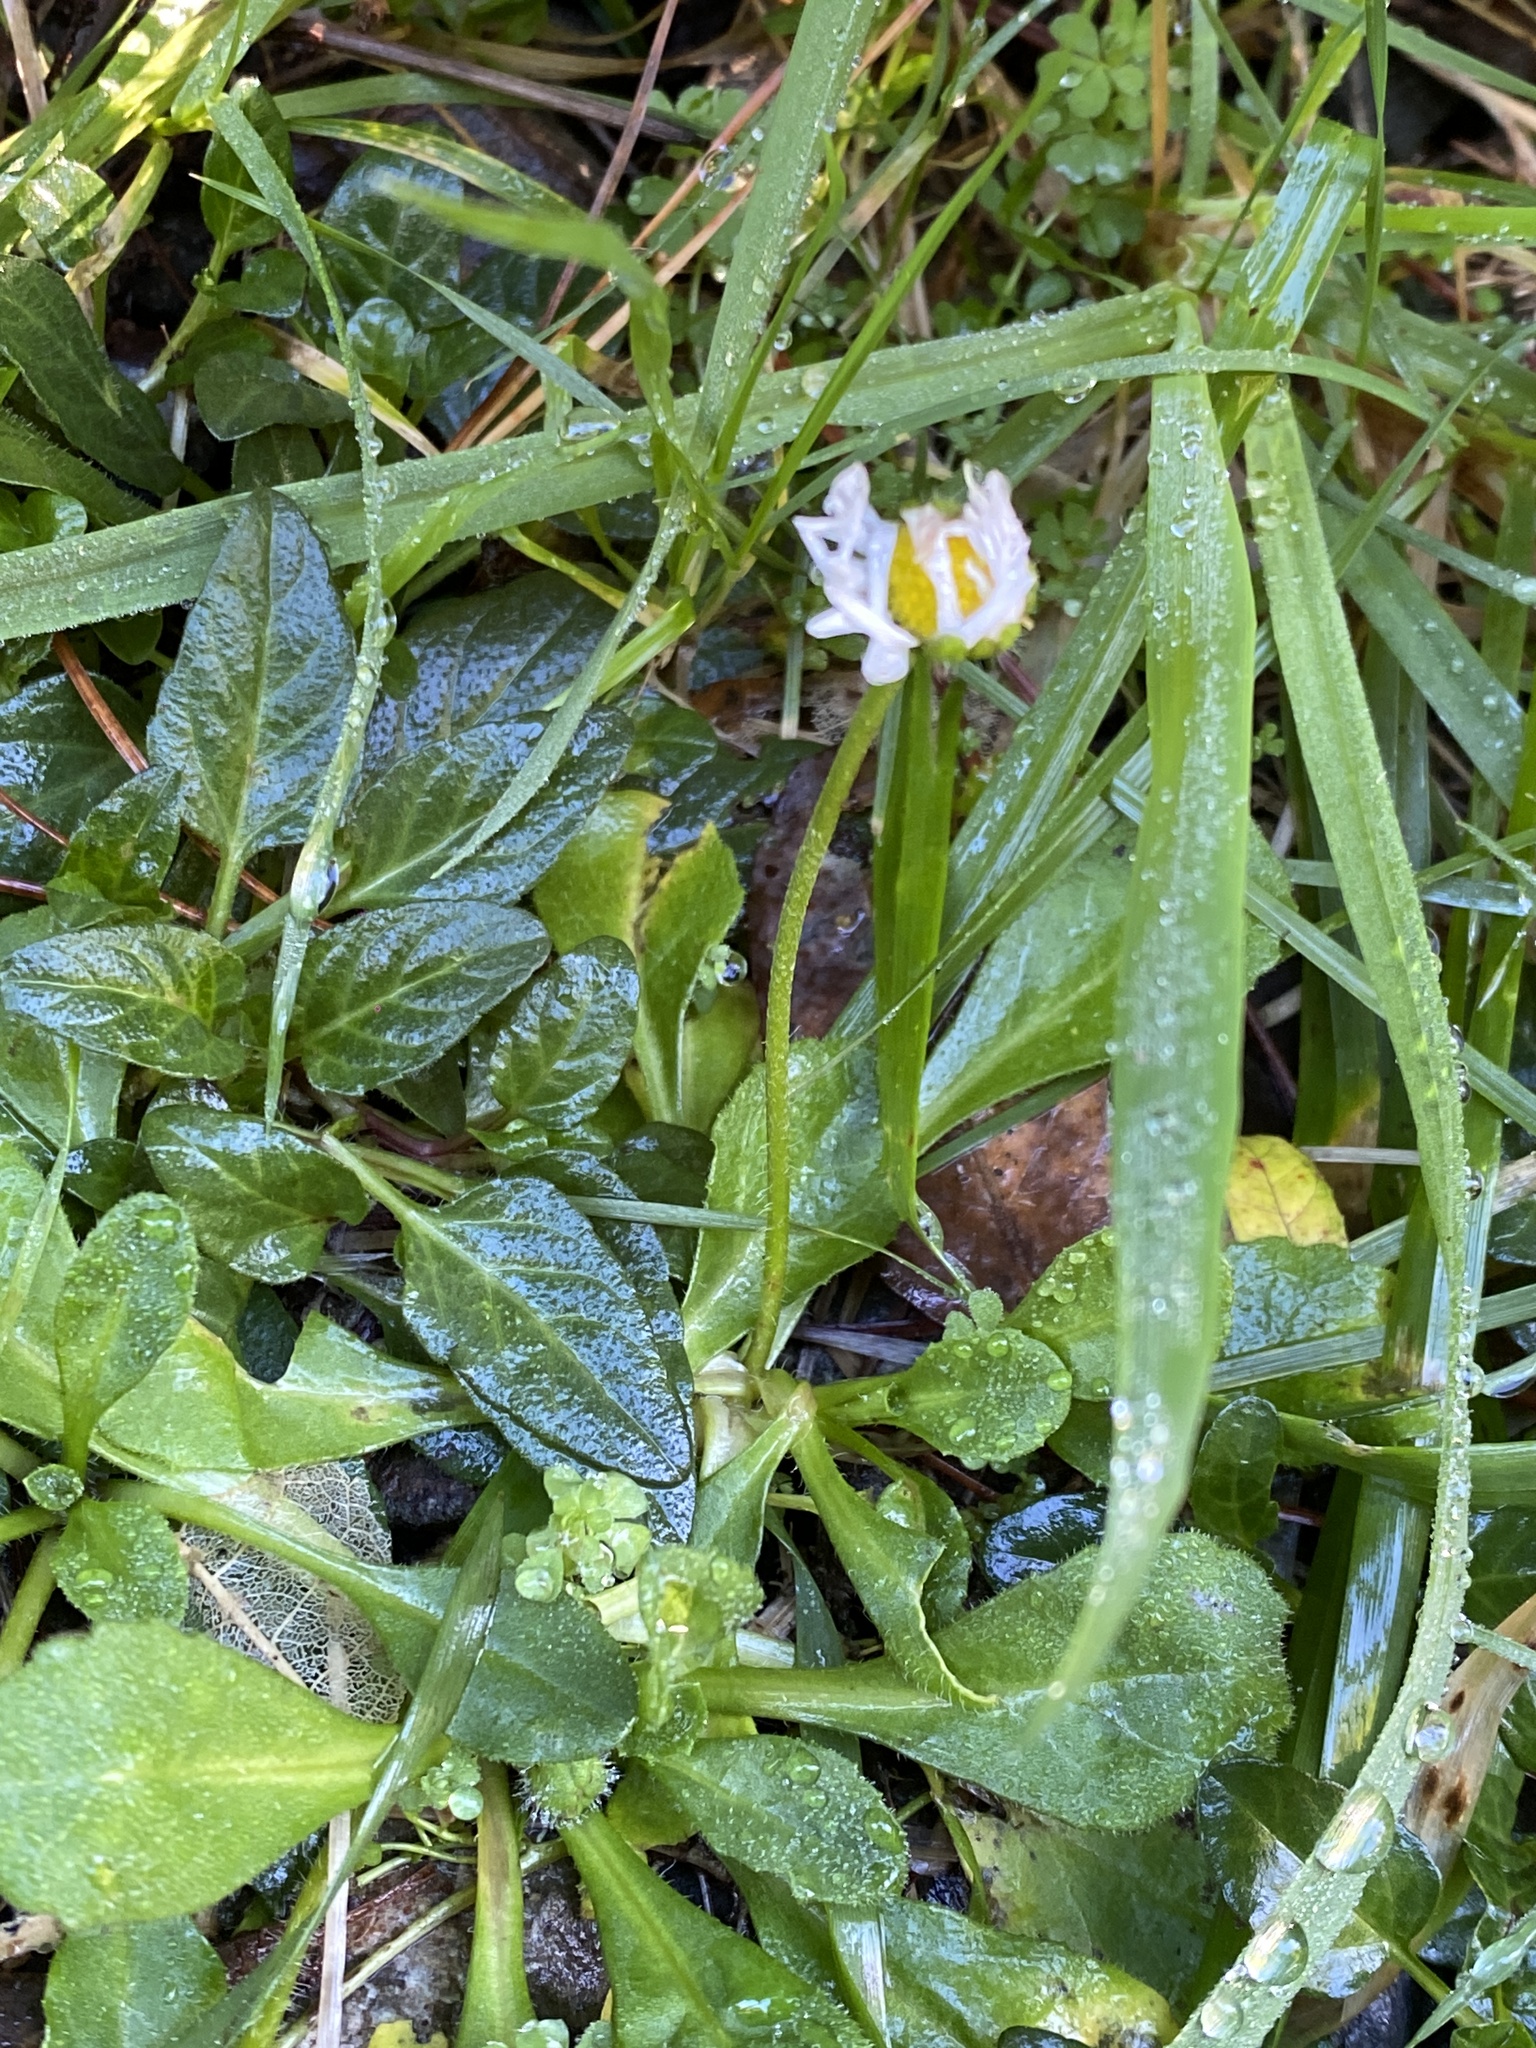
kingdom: Plantae
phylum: Tracheophyta
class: Magnoliopsida
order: Asterales
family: Asteraceae
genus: Bellis
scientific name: Bellis perennis
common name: Lawndaisy
